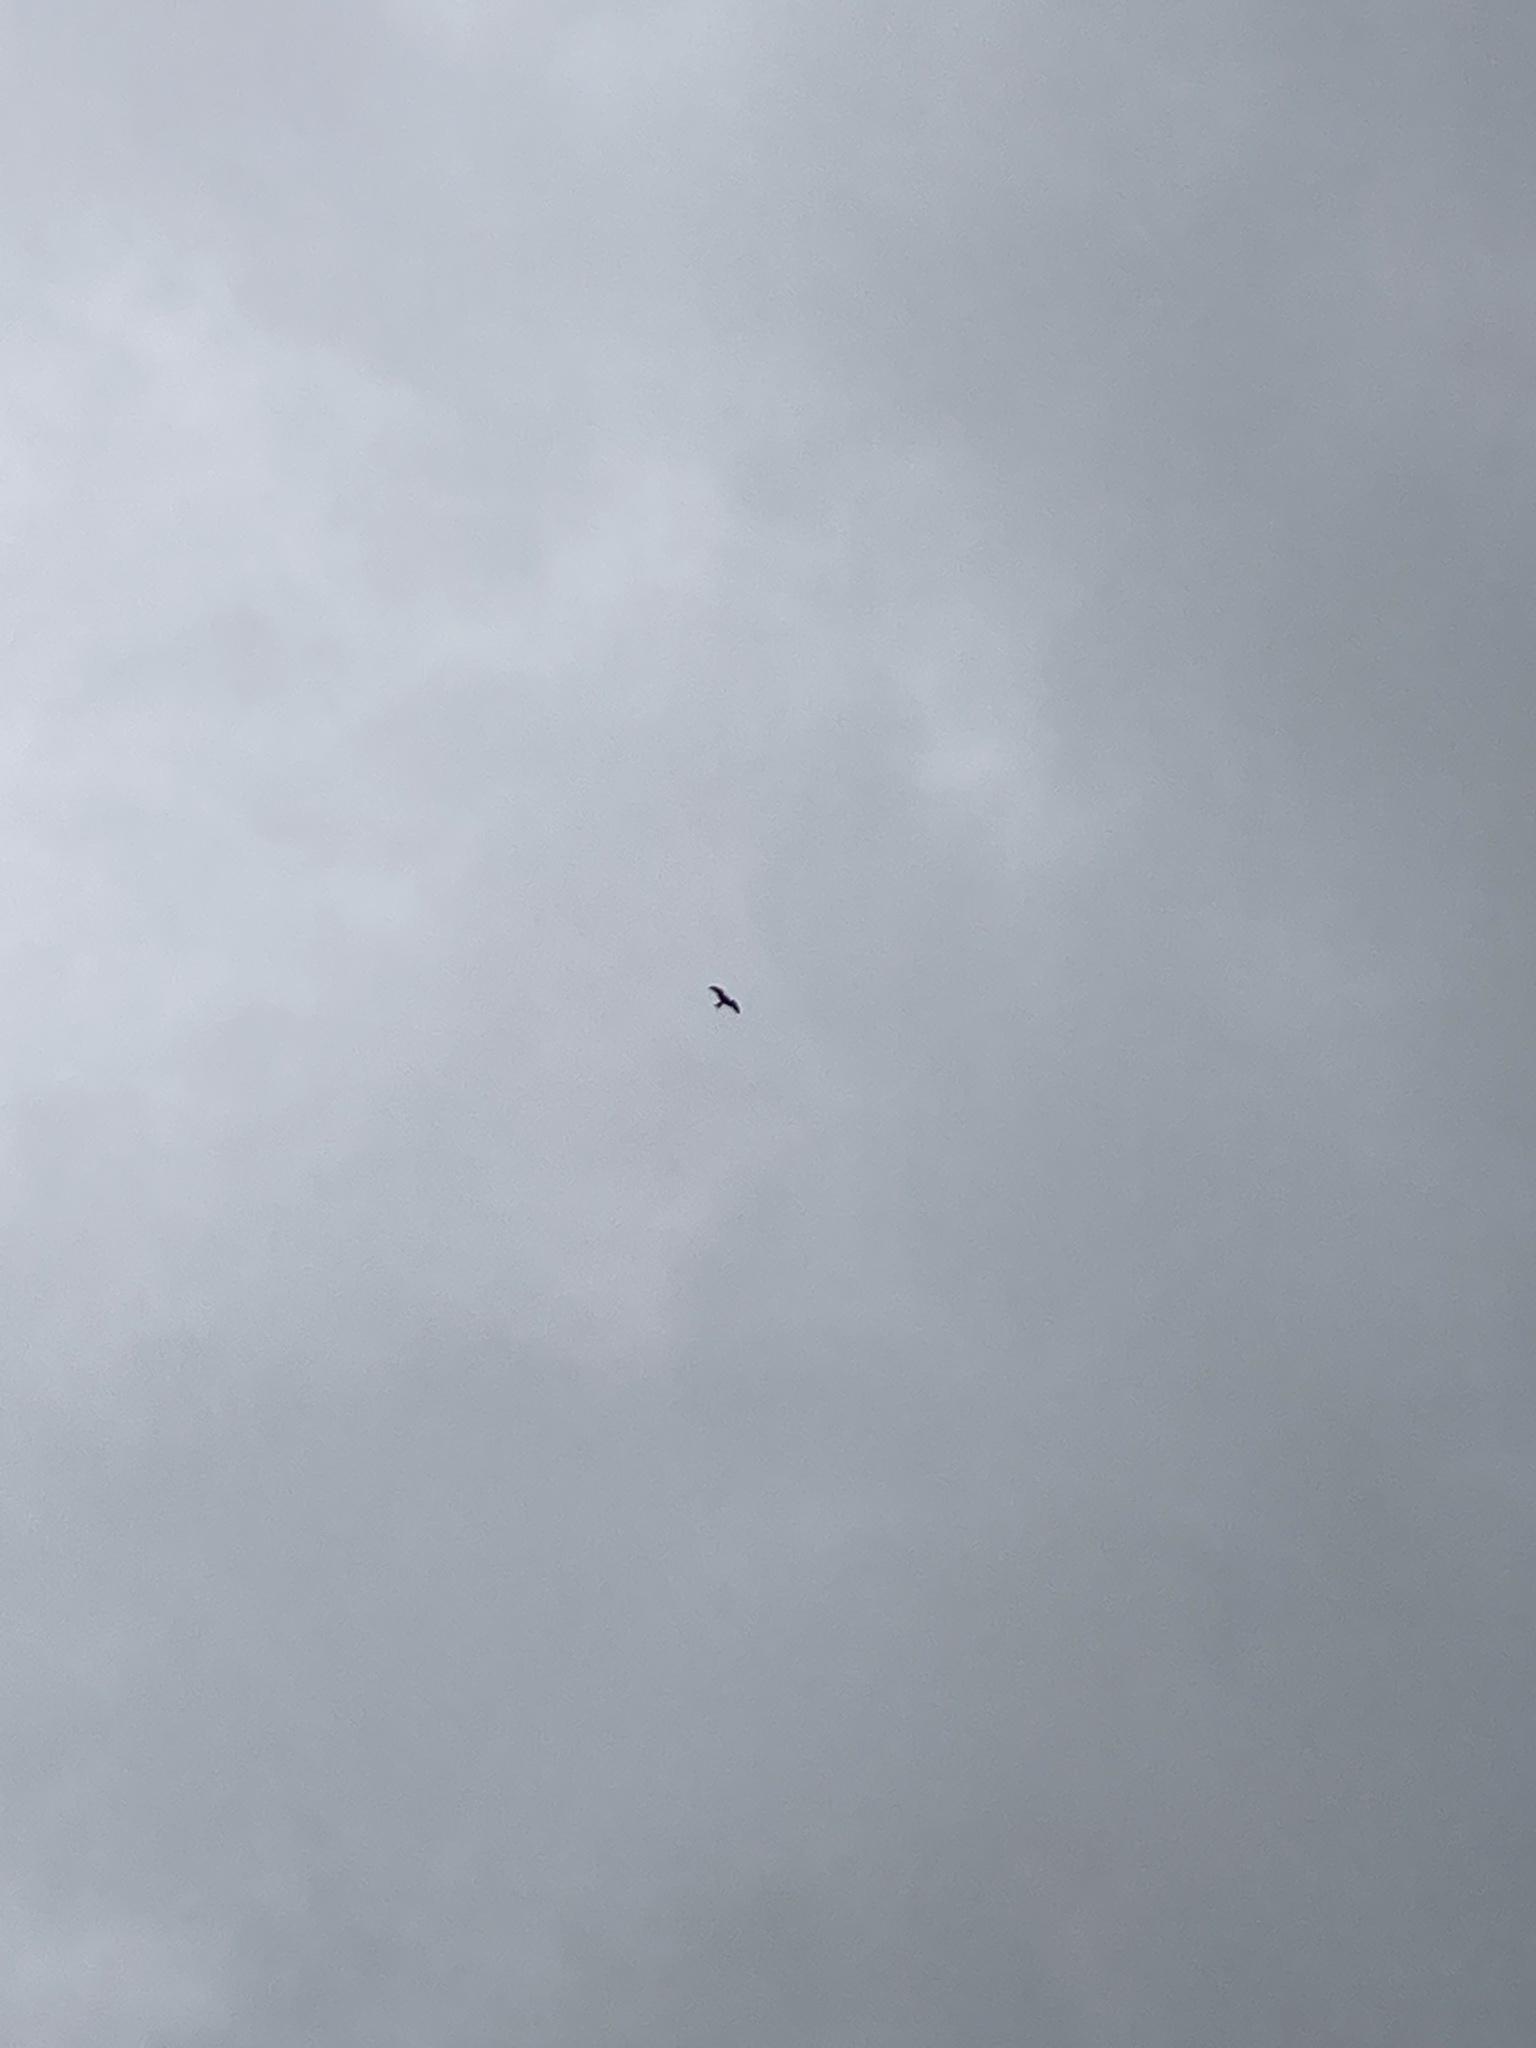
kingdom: Animalia
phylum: Chordata
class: Aves
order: Accipitriformes
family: Accipitridae
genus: Milvus
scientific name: Milvus milvus
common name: Red kite
